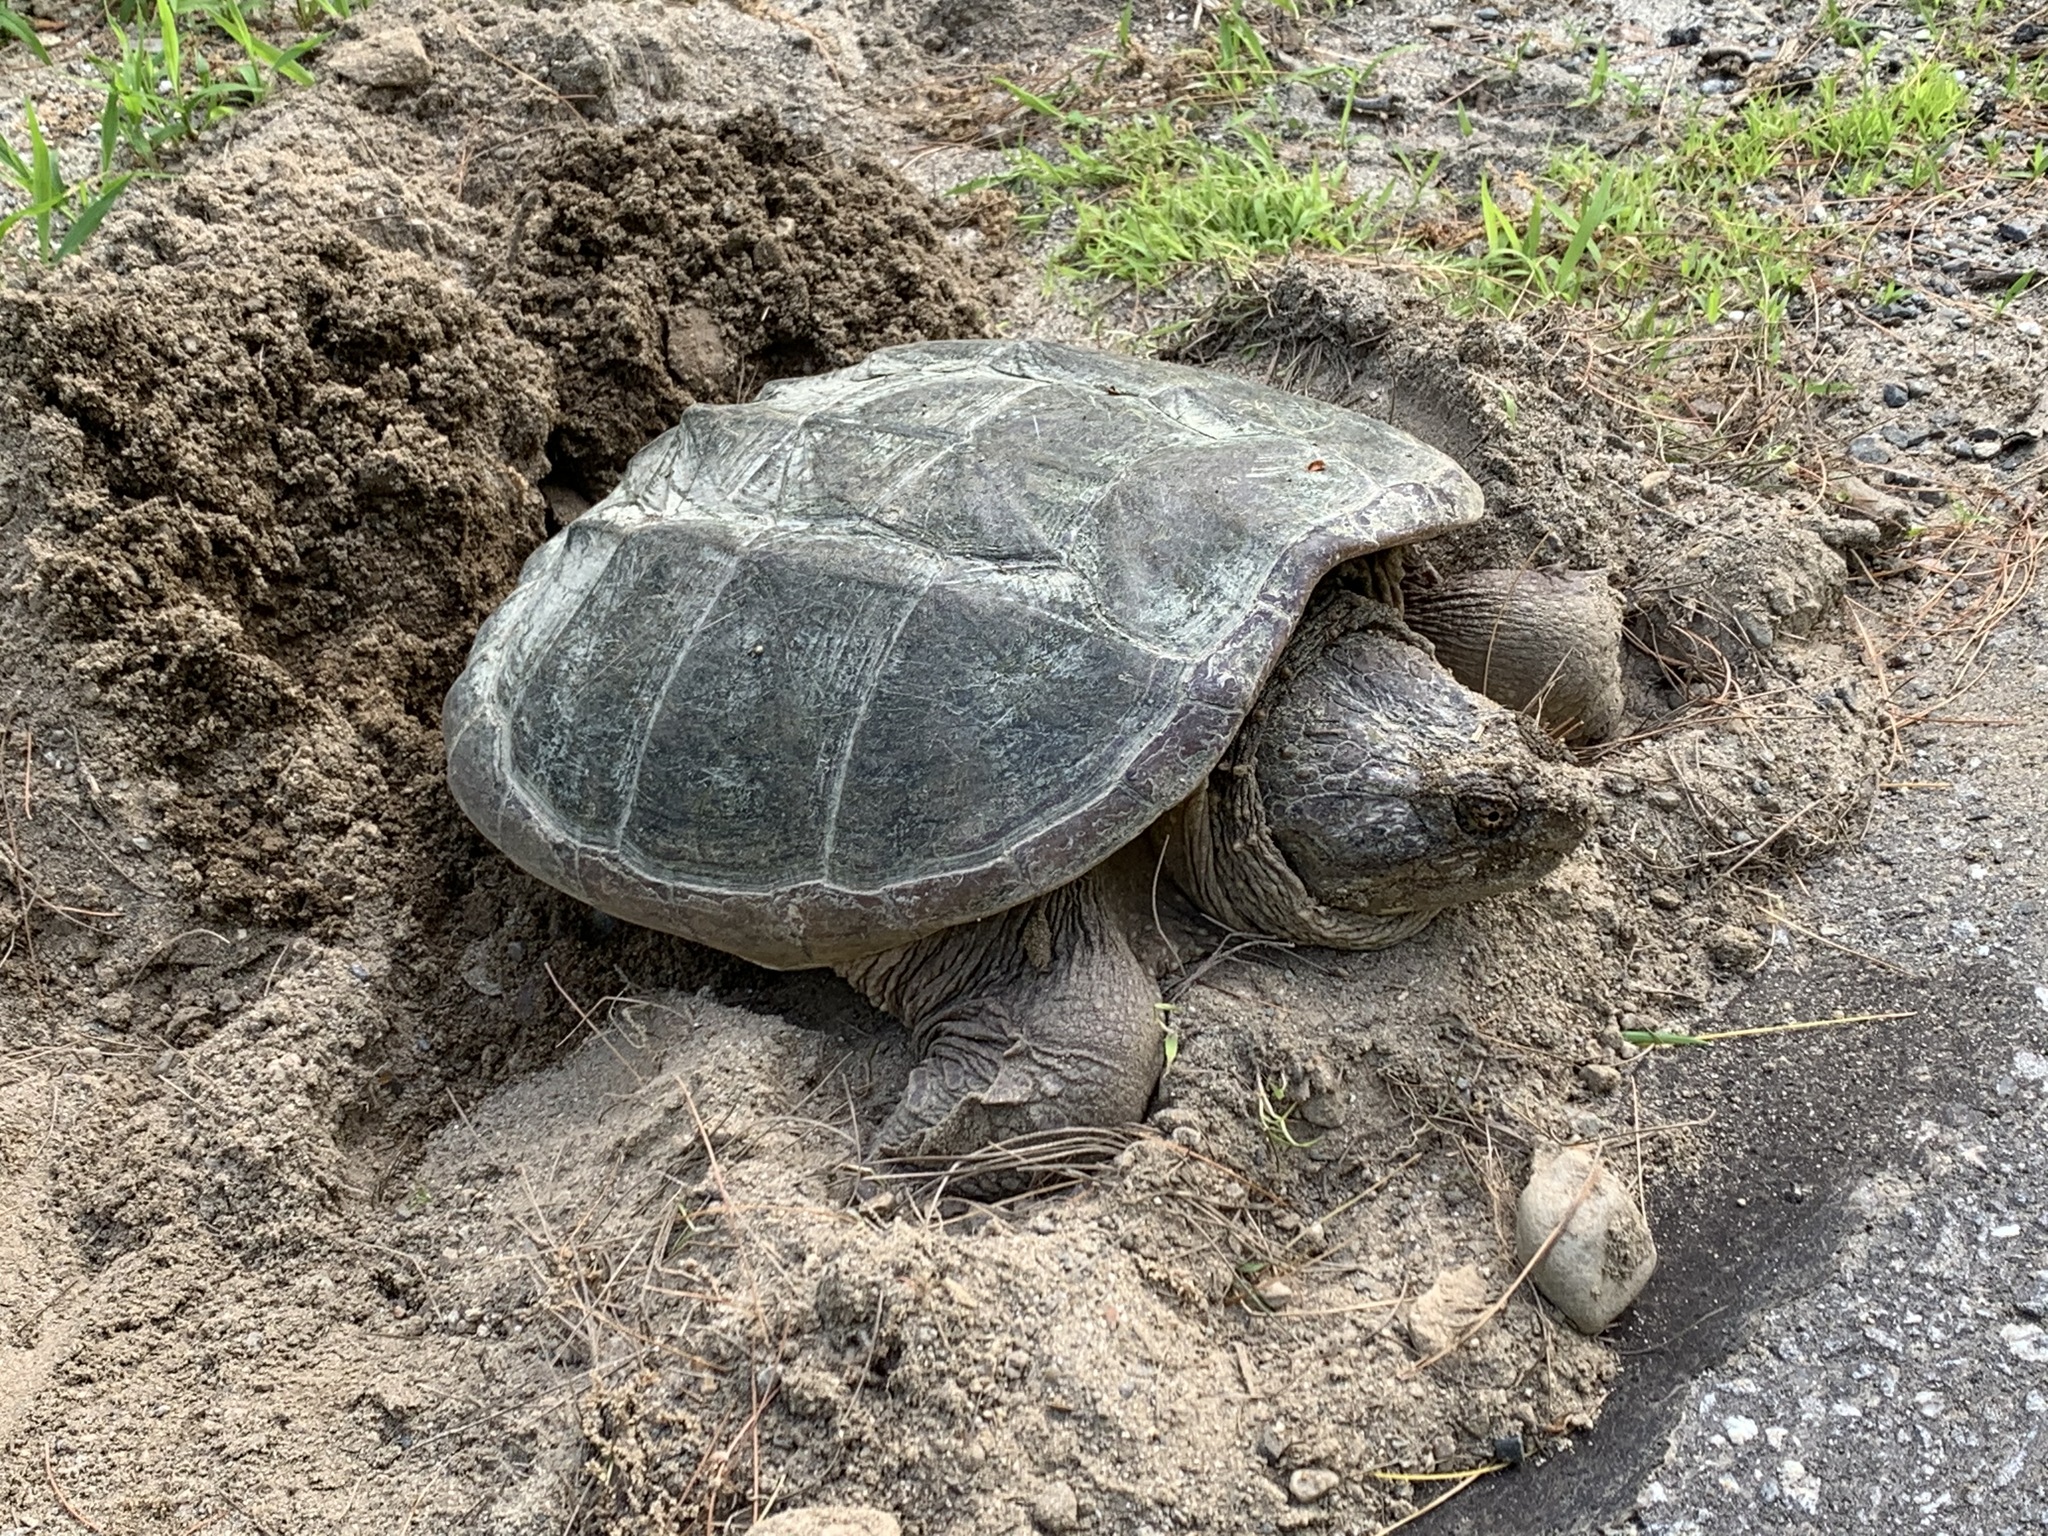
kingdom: Animalia
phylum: Chordata
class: Testudines
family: Chelydridae
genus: Chelydra
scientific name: Chelydra serpentina
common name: Common snapping turtle
